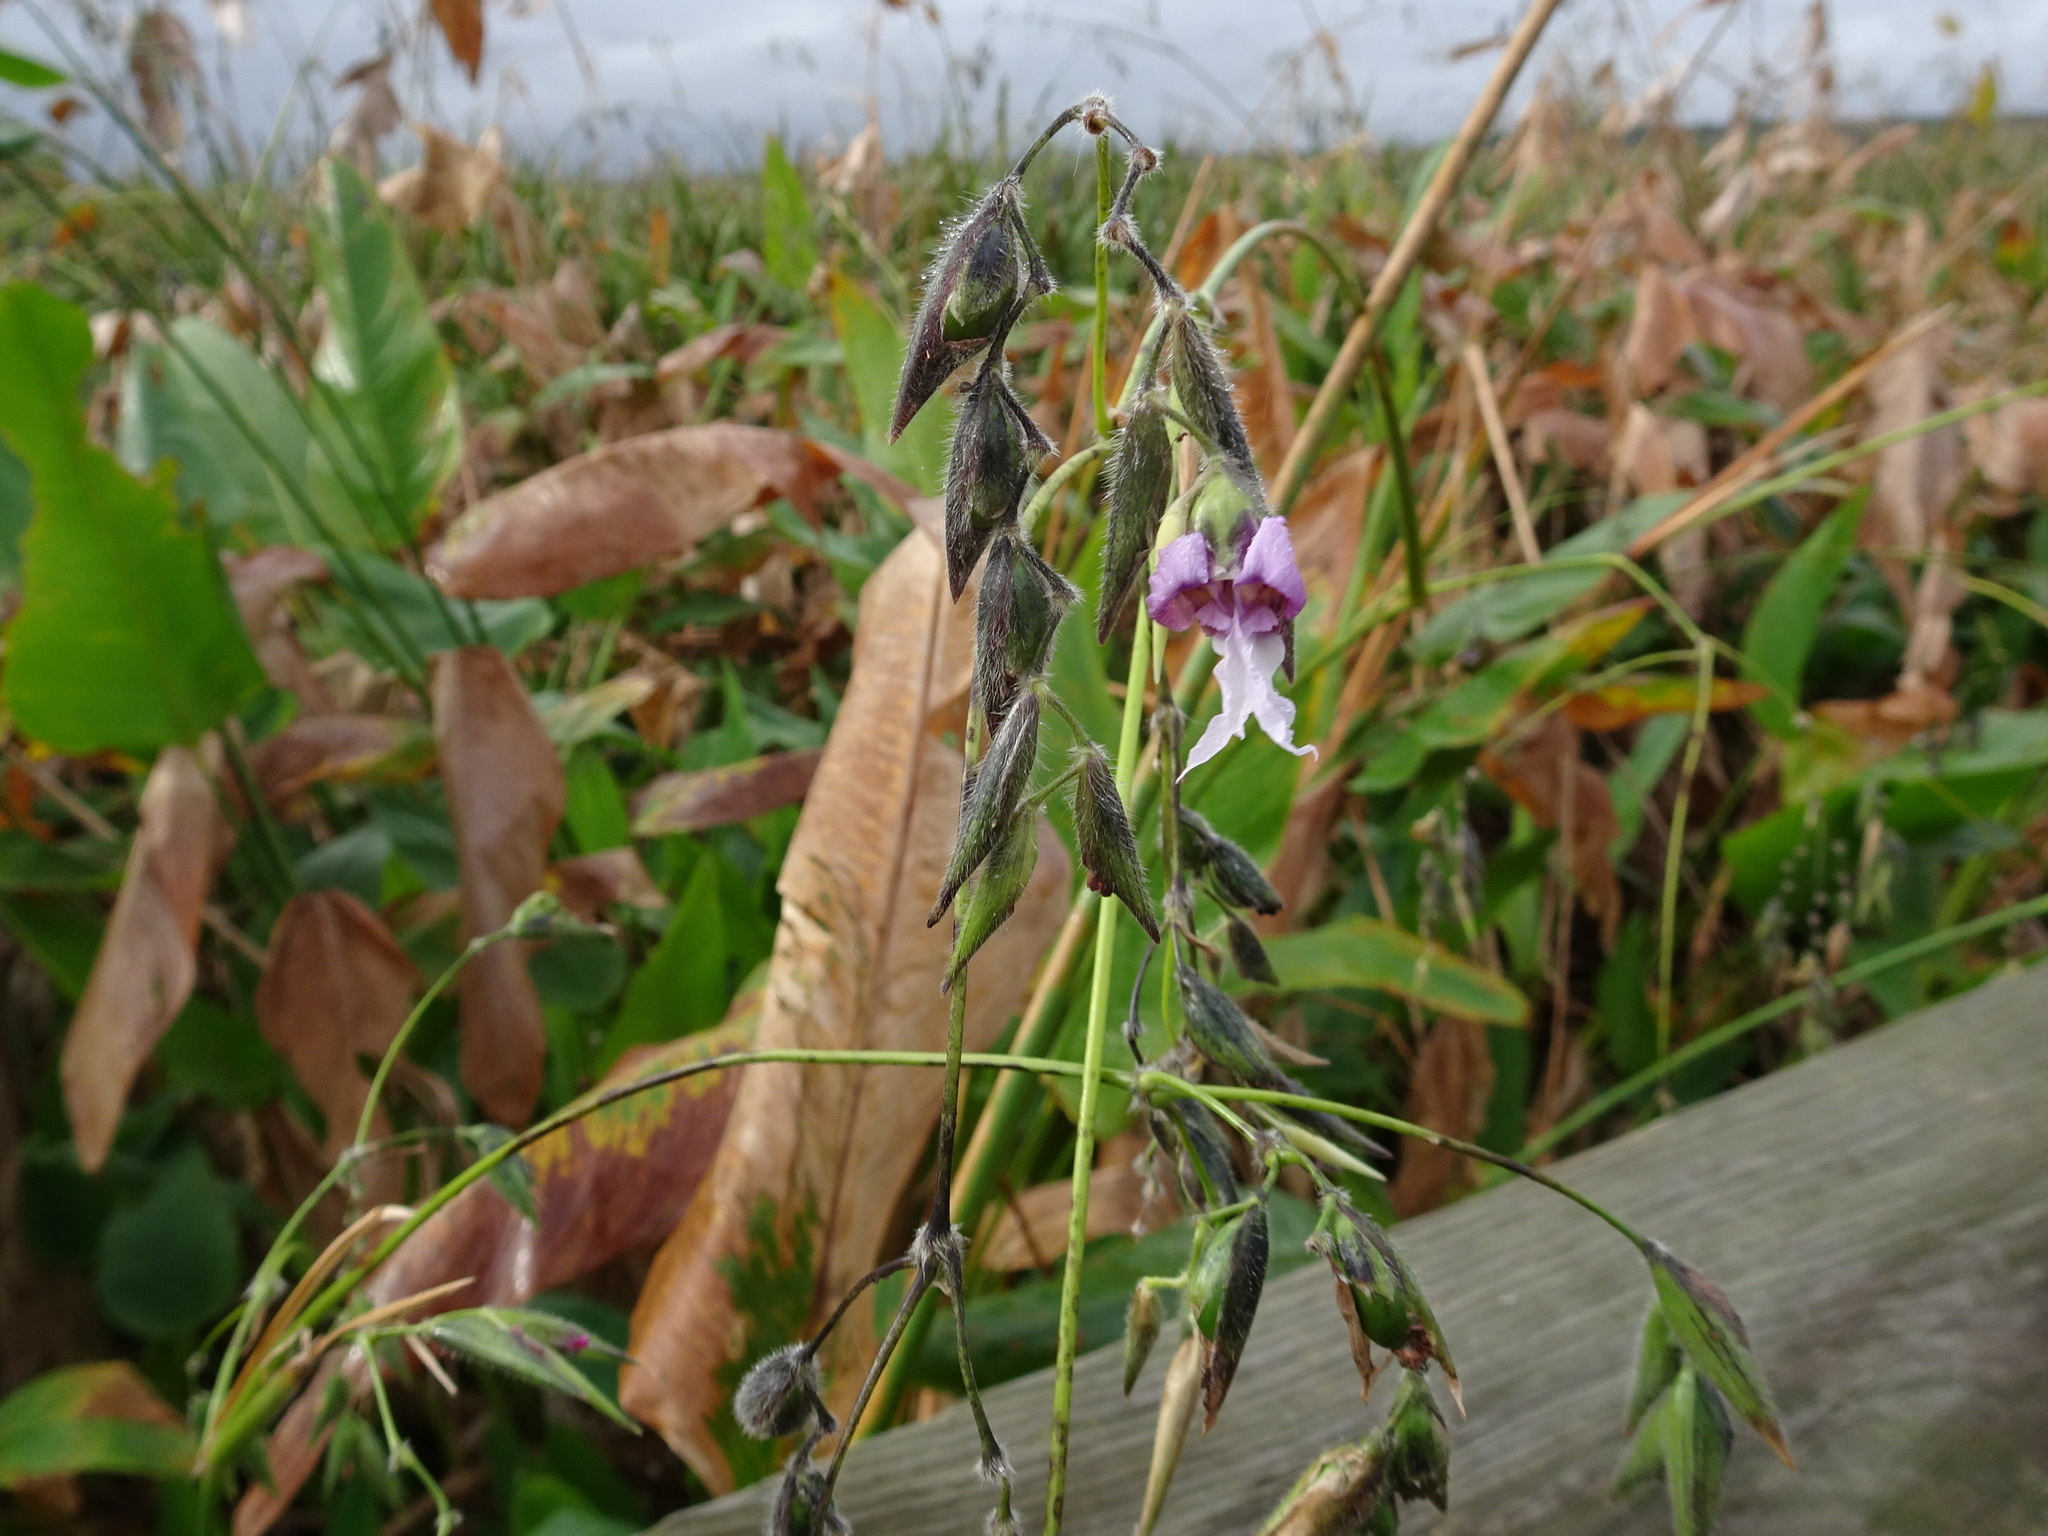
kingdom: Plantae
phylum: Tracheophyta
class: Liliopsida
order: Zingiberales
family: Marantaceae
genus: Thalia
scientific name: Thalia geniculata
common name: Arrowroot
